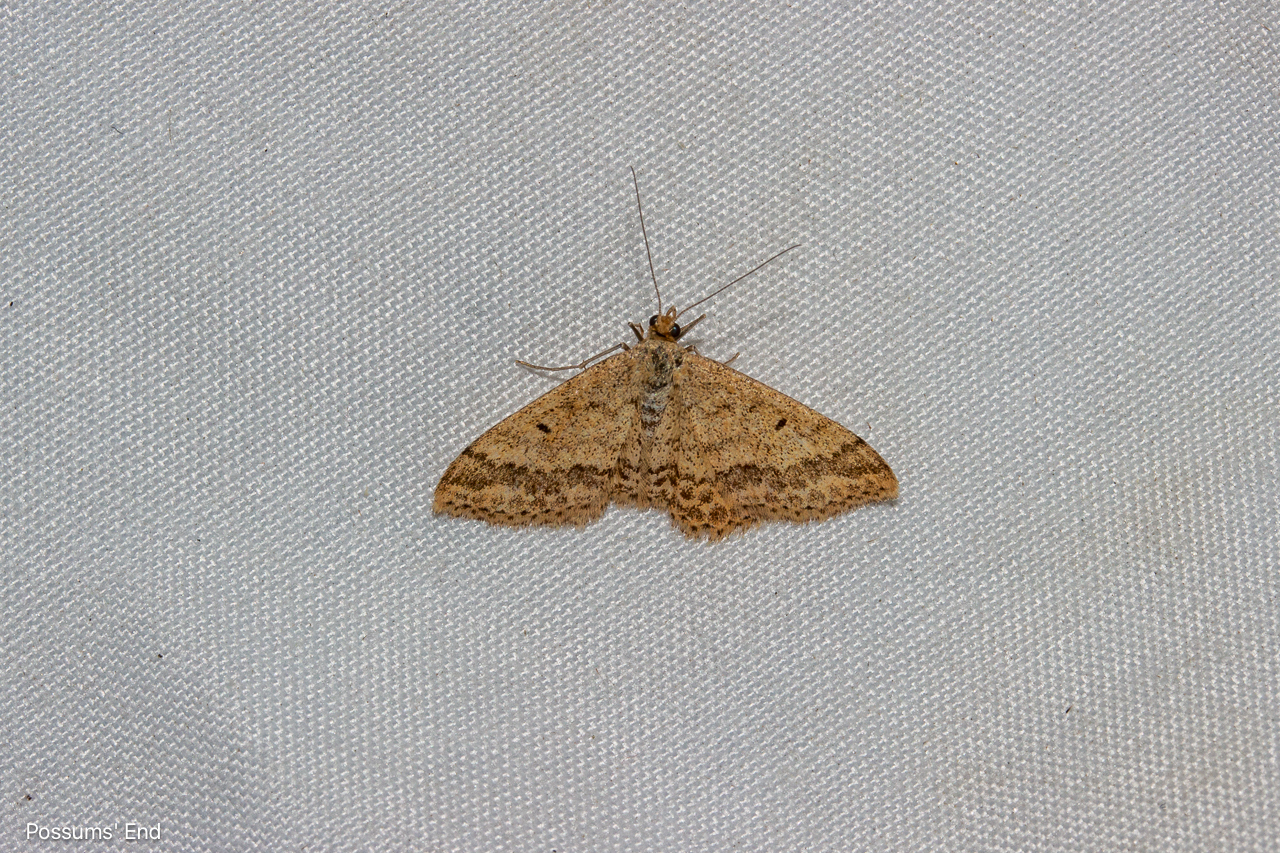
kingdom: Animalia
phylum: Arthropoda
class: Insecta
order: Lepidoptera
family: Geometridae
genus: Scopula
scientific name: Scopula rubraria
